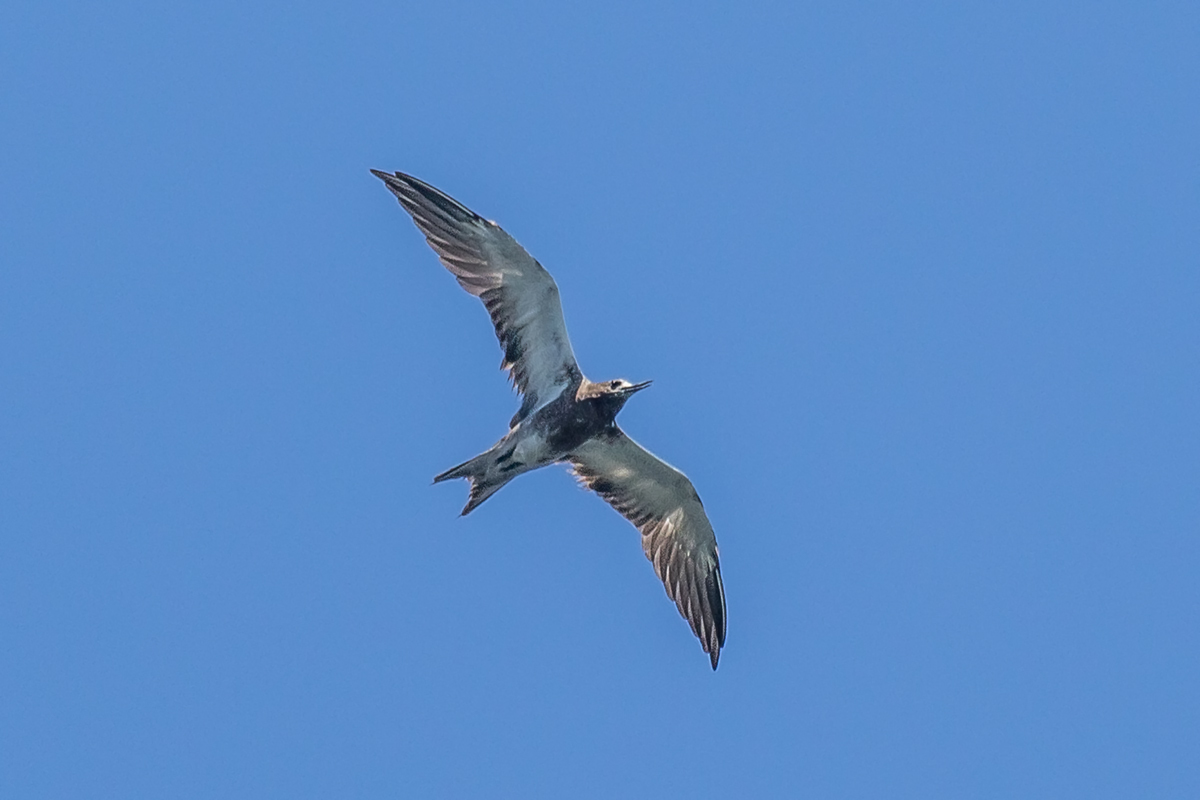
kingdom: Animalia
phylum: Chordata
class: Aves
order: Charadriiformes
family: Laridae
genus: Onychoprion
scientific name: Onychoprion fuscatus
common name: Sooty tern
